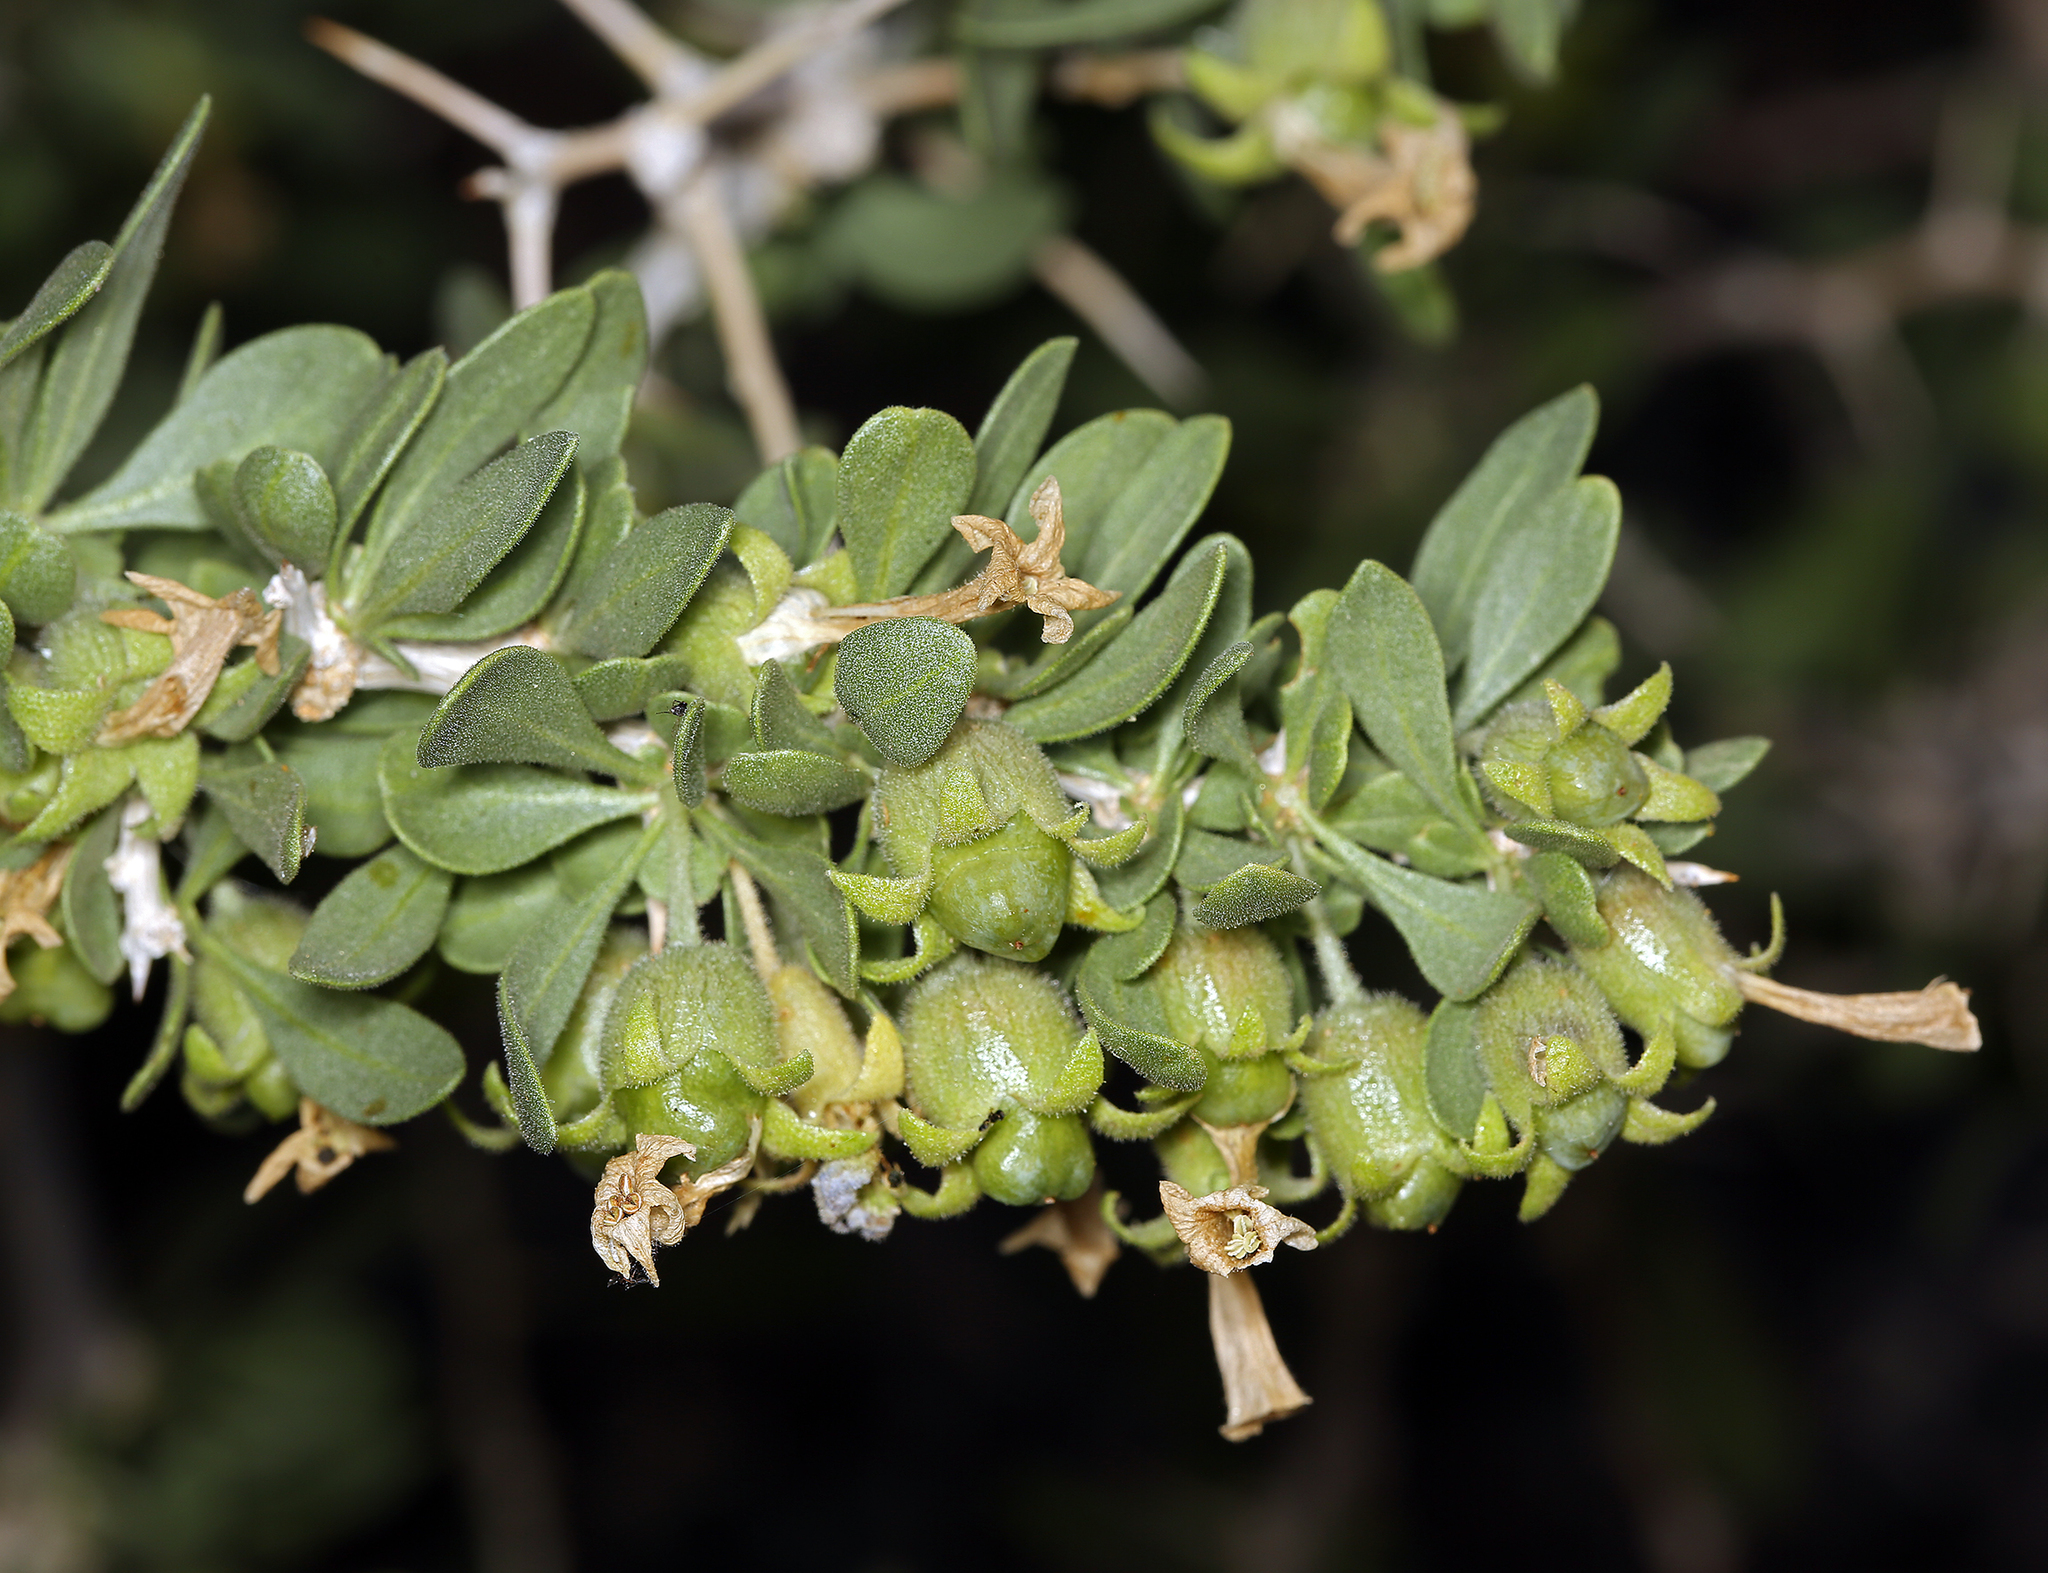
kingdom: Plantae
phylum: Tracheophyta
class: Magnoliopsida
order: Solanales
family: Solanaceae
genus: Lycium
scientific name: Lycium cooperi
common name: Peachthorn
